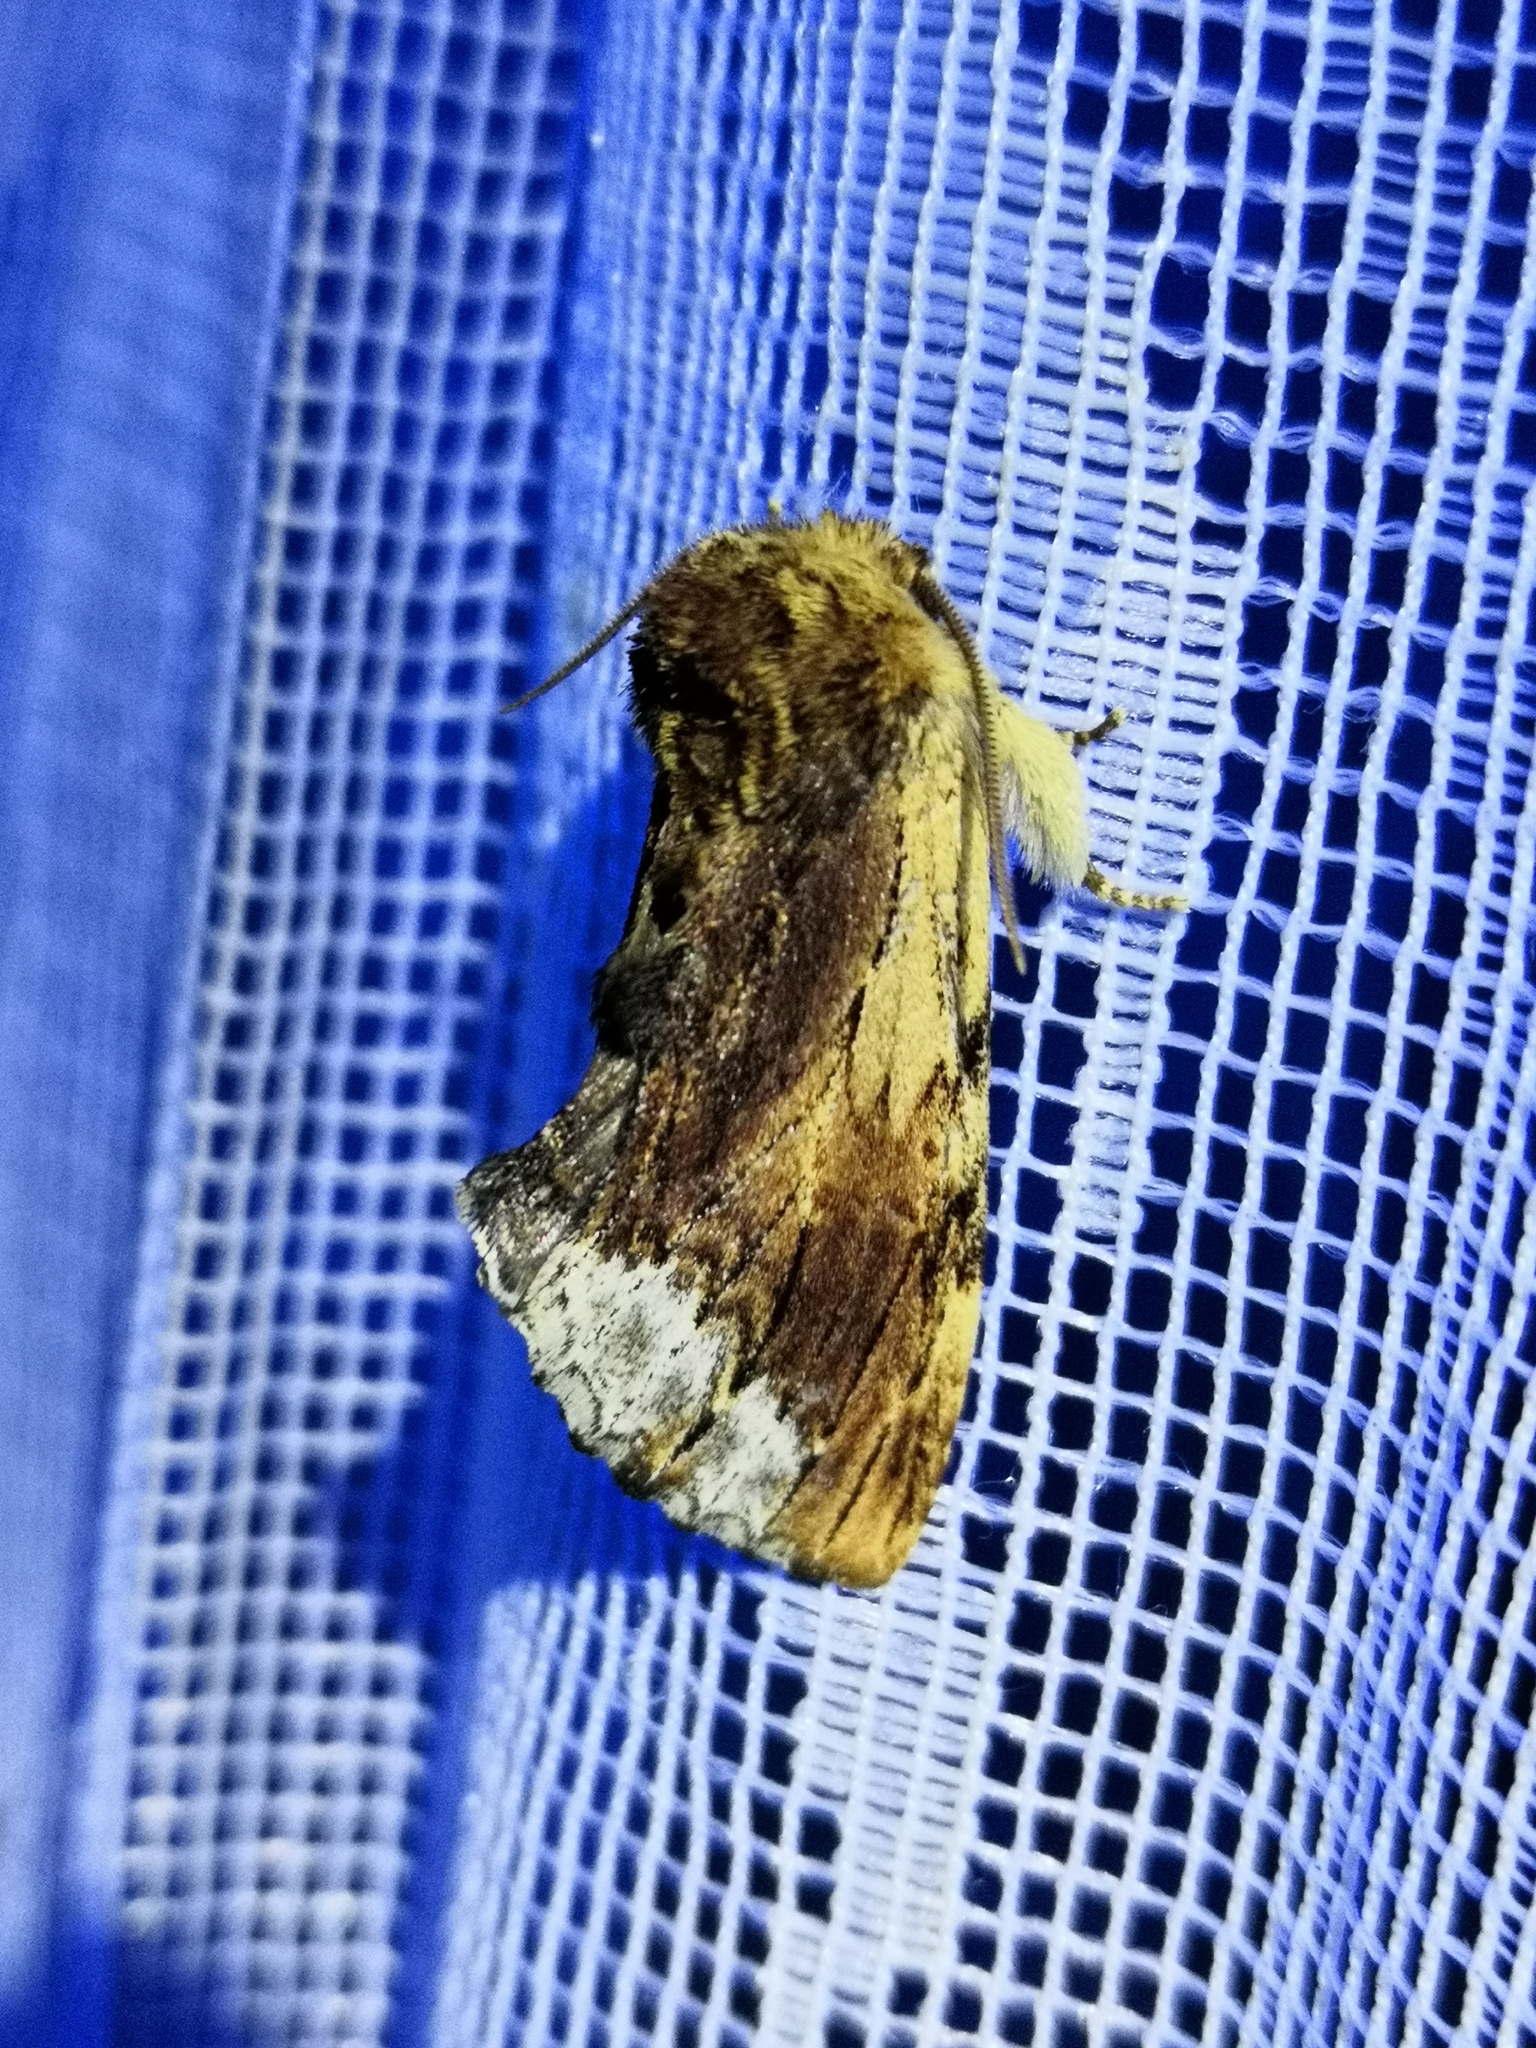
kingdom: Animalia
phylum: Arthropoda
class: Insecta
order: Lepidoptera
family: Notodontidae
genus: Ptilodon
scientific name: Ptilodon cucullina
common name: Maple prominent
